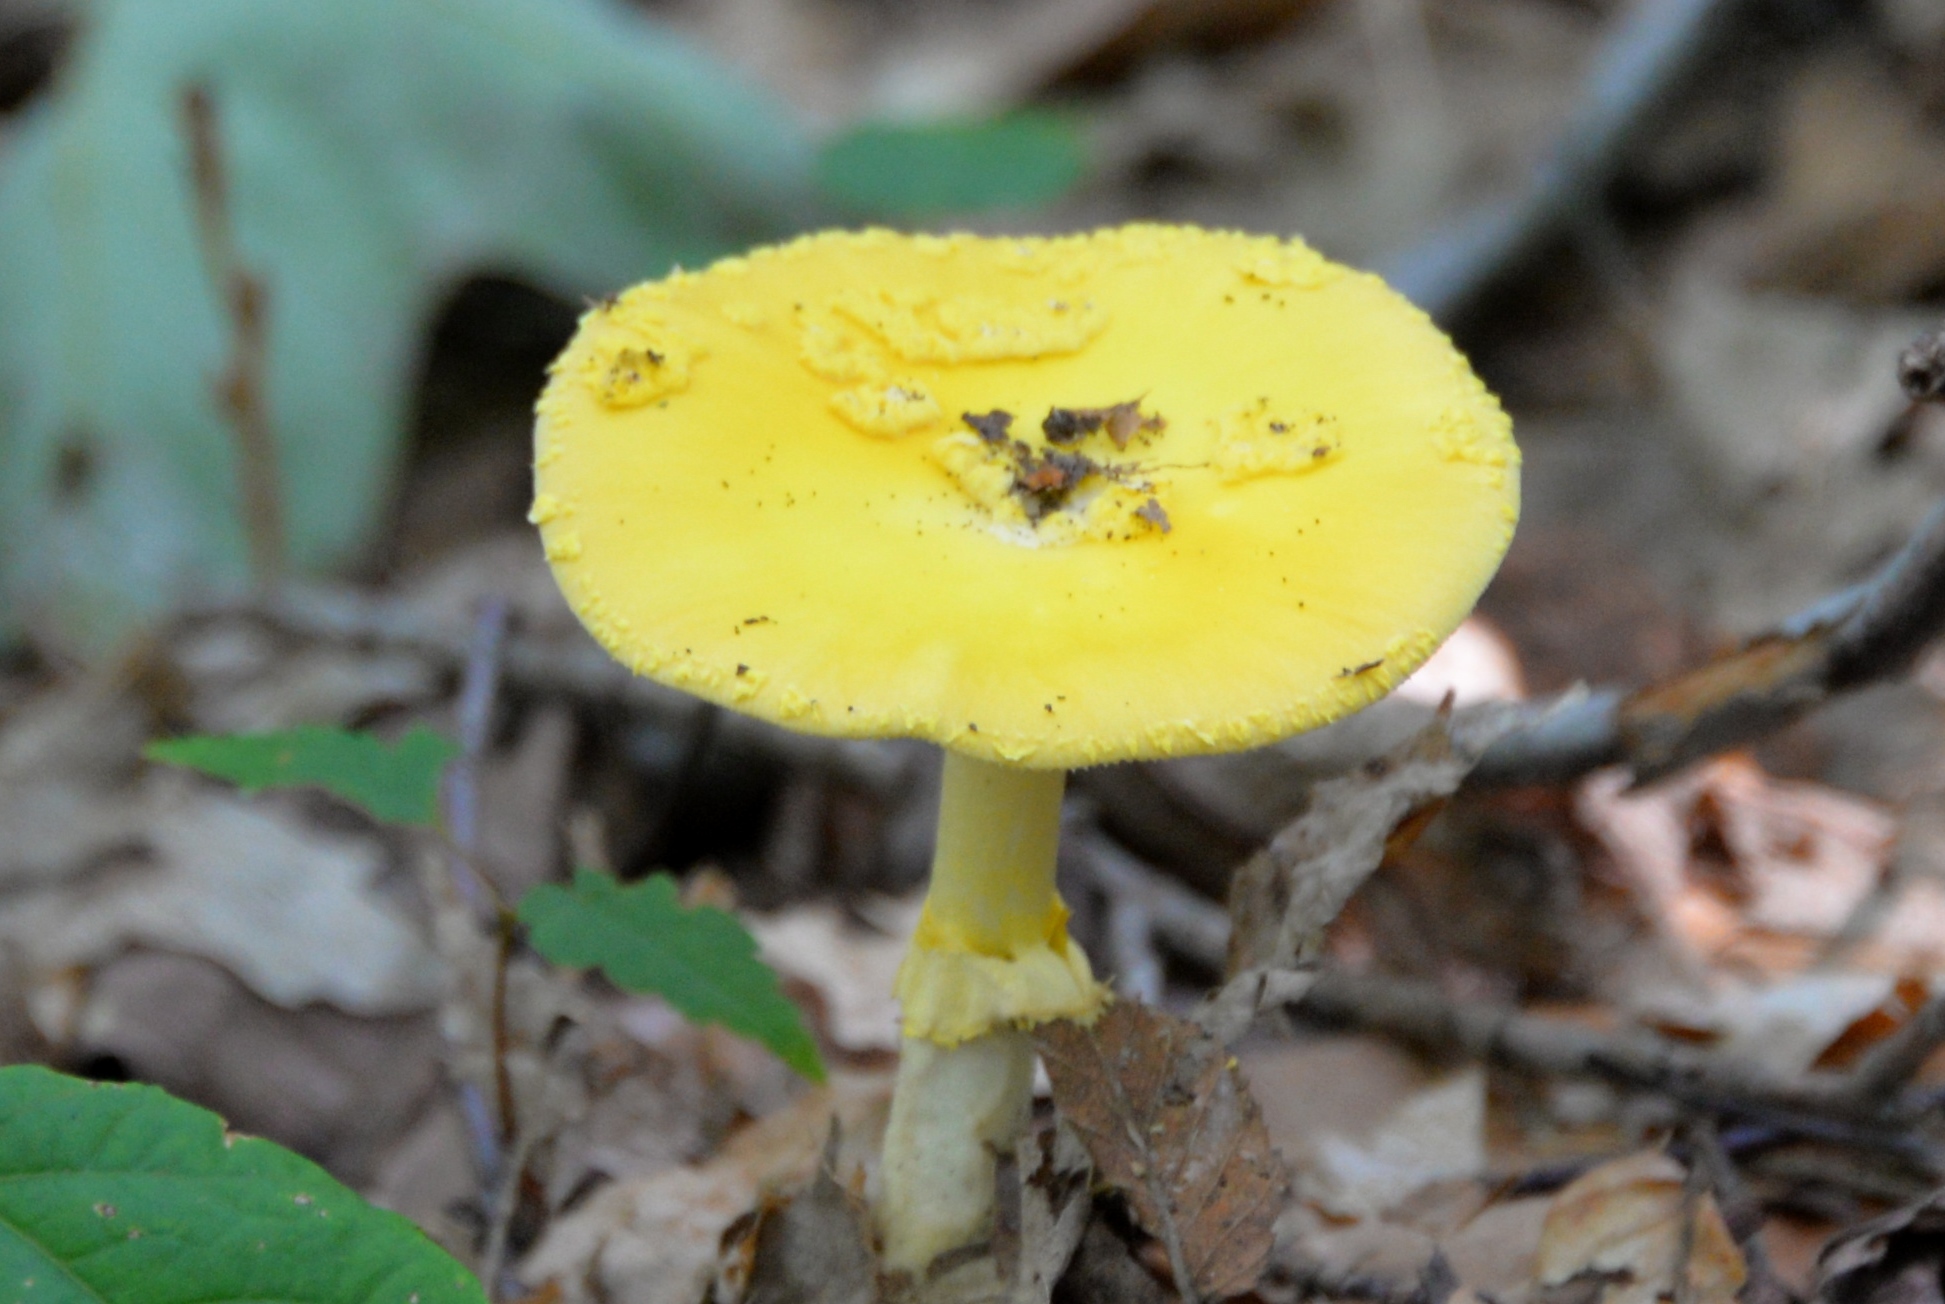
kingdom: Fungi
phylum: Basidiomycota
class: Agaricomycetes
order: Agaricales
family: Amanitaceae
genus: Amanita
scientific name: Amanita flavoconia
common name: Yellow patches
